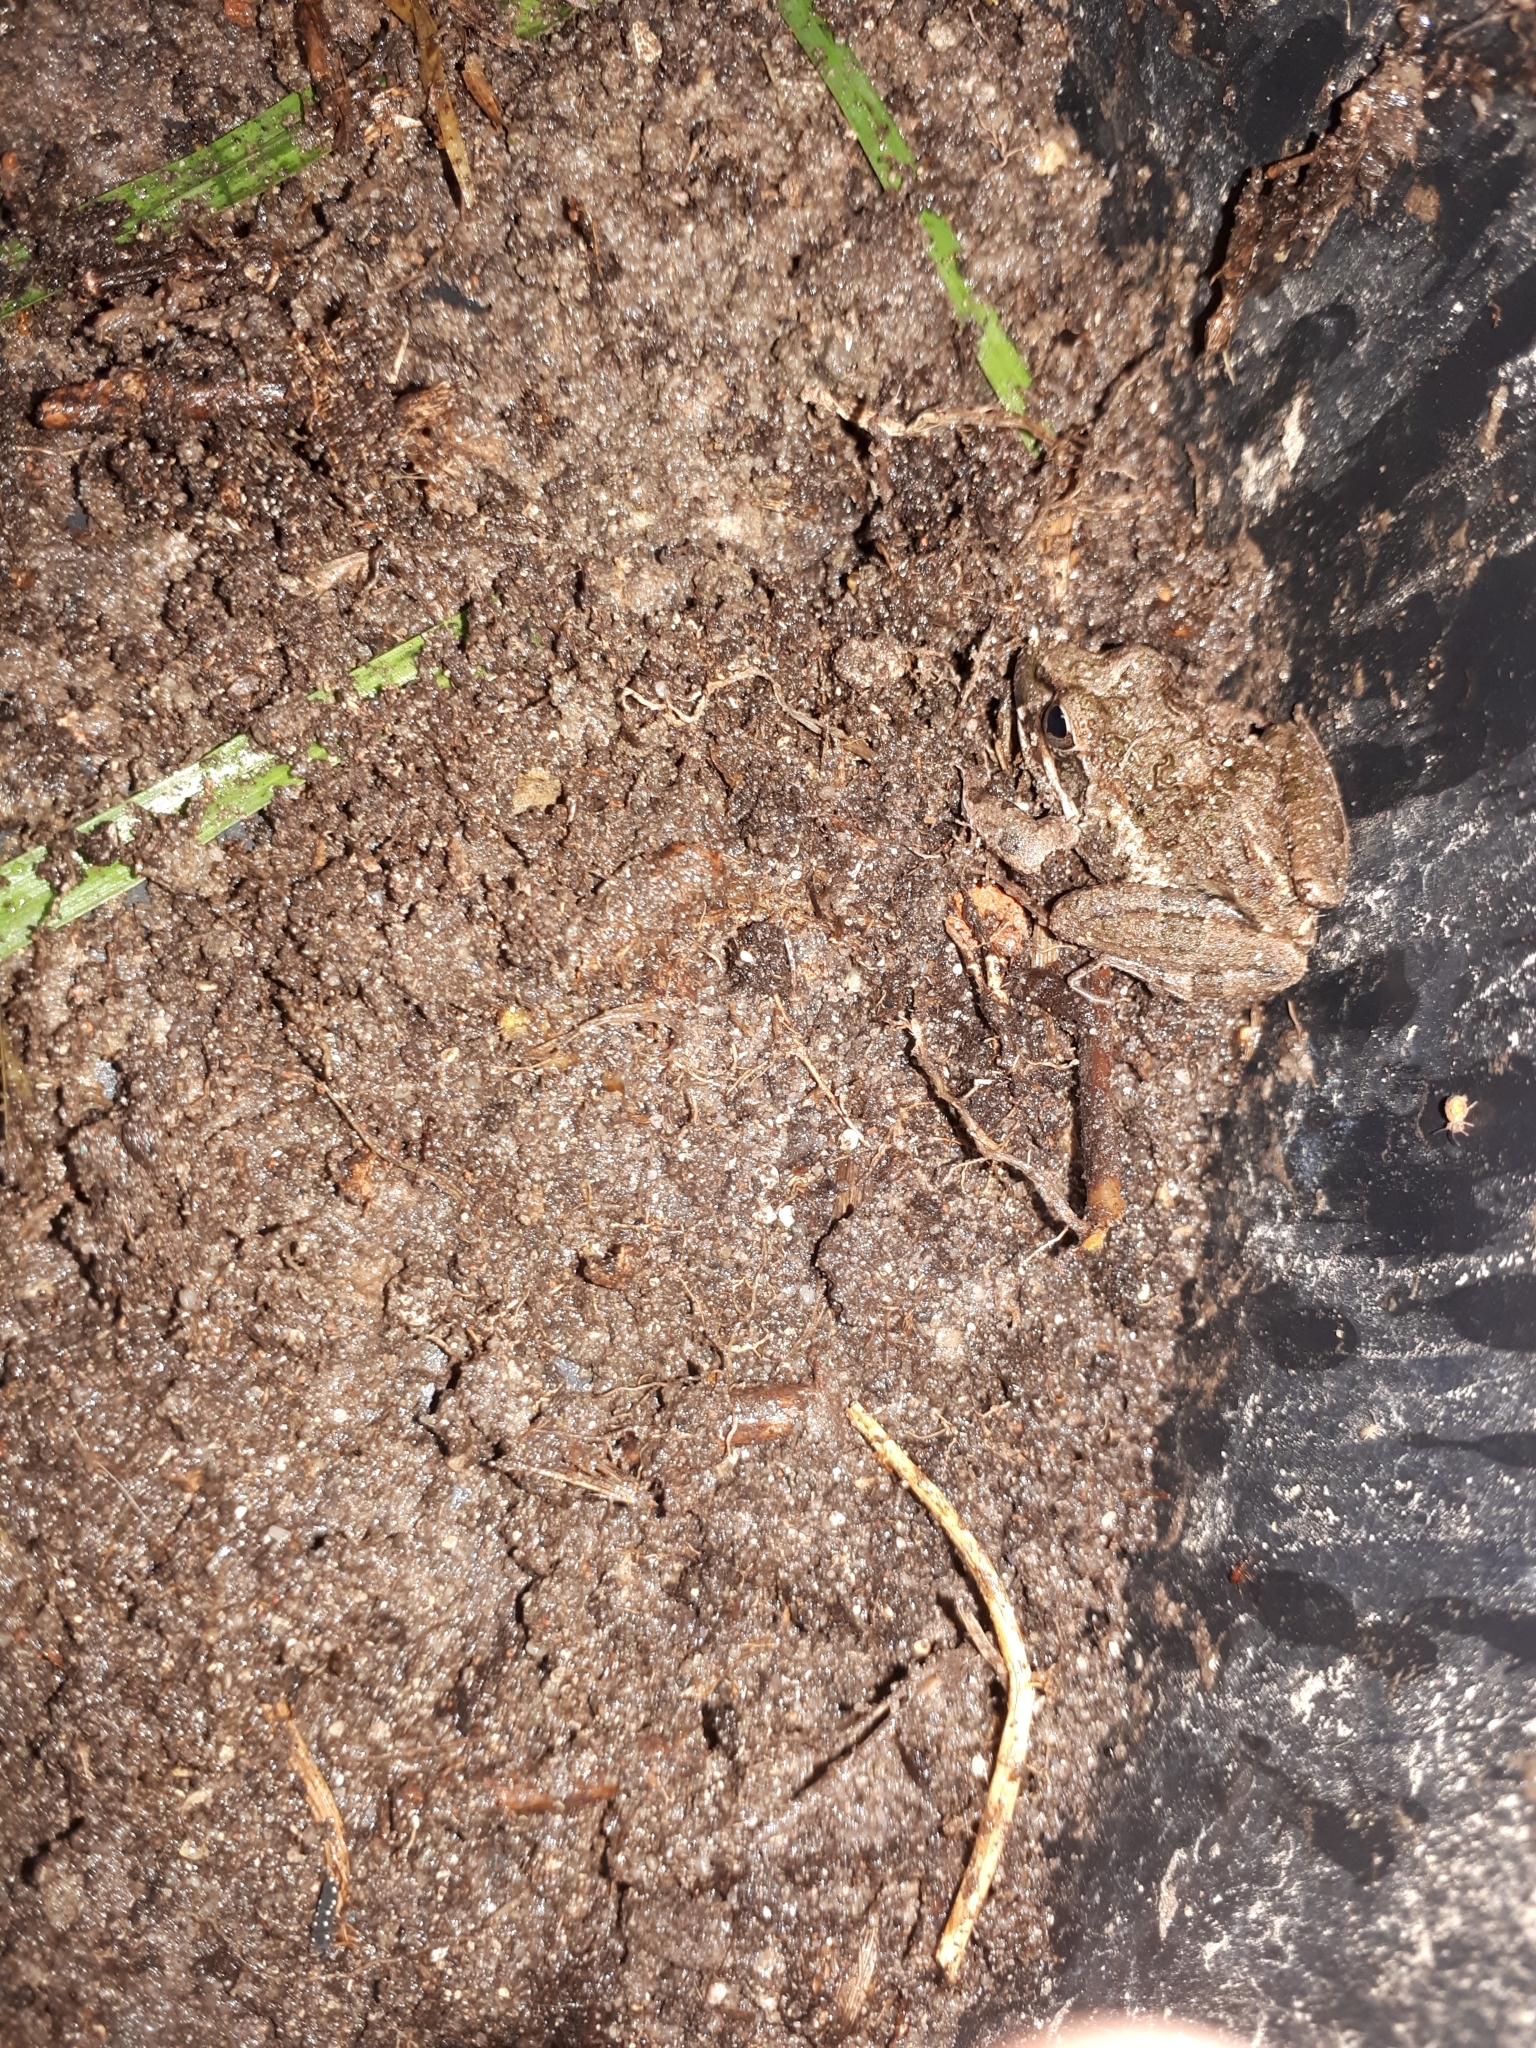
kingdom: Animalia
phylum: Chordata
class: Amphibia
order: Anura
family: Pyxicephalidae
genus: Strongylopus
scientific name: Strongylopus grayii
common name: Gray's stream frog
